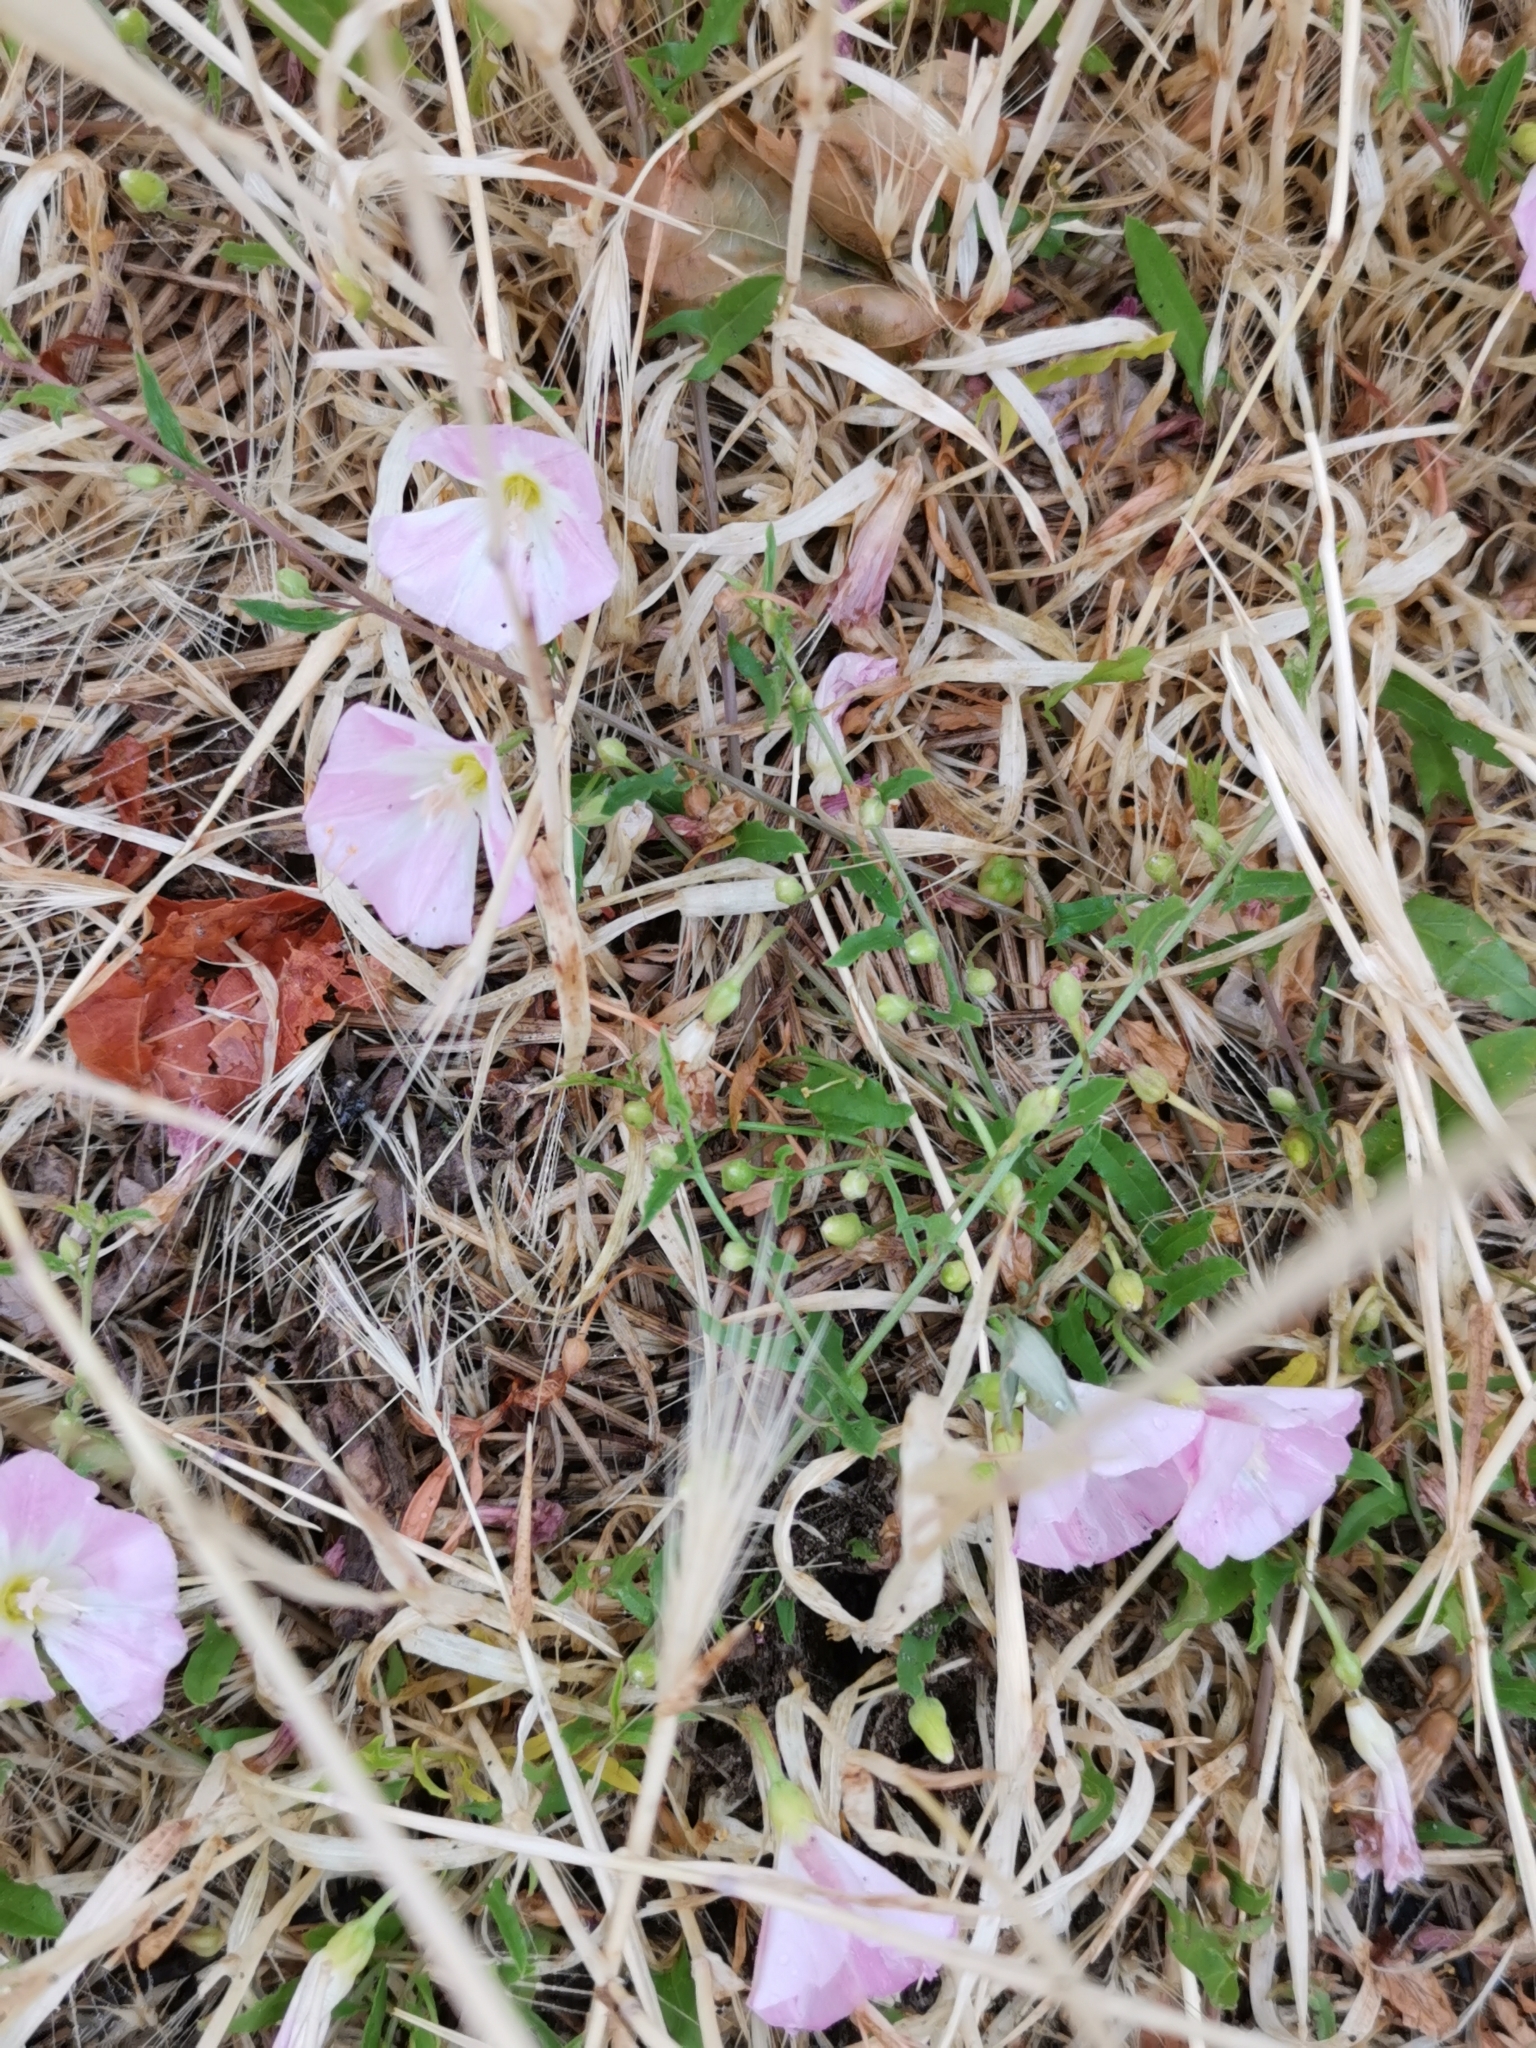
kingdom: Plantae
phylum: Tracheophyta
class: Magnoliopsida
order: Solanales
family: Convolvulaceae
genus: Convolvulus
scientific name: Convolvulus arvensis
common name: Field bindweed
